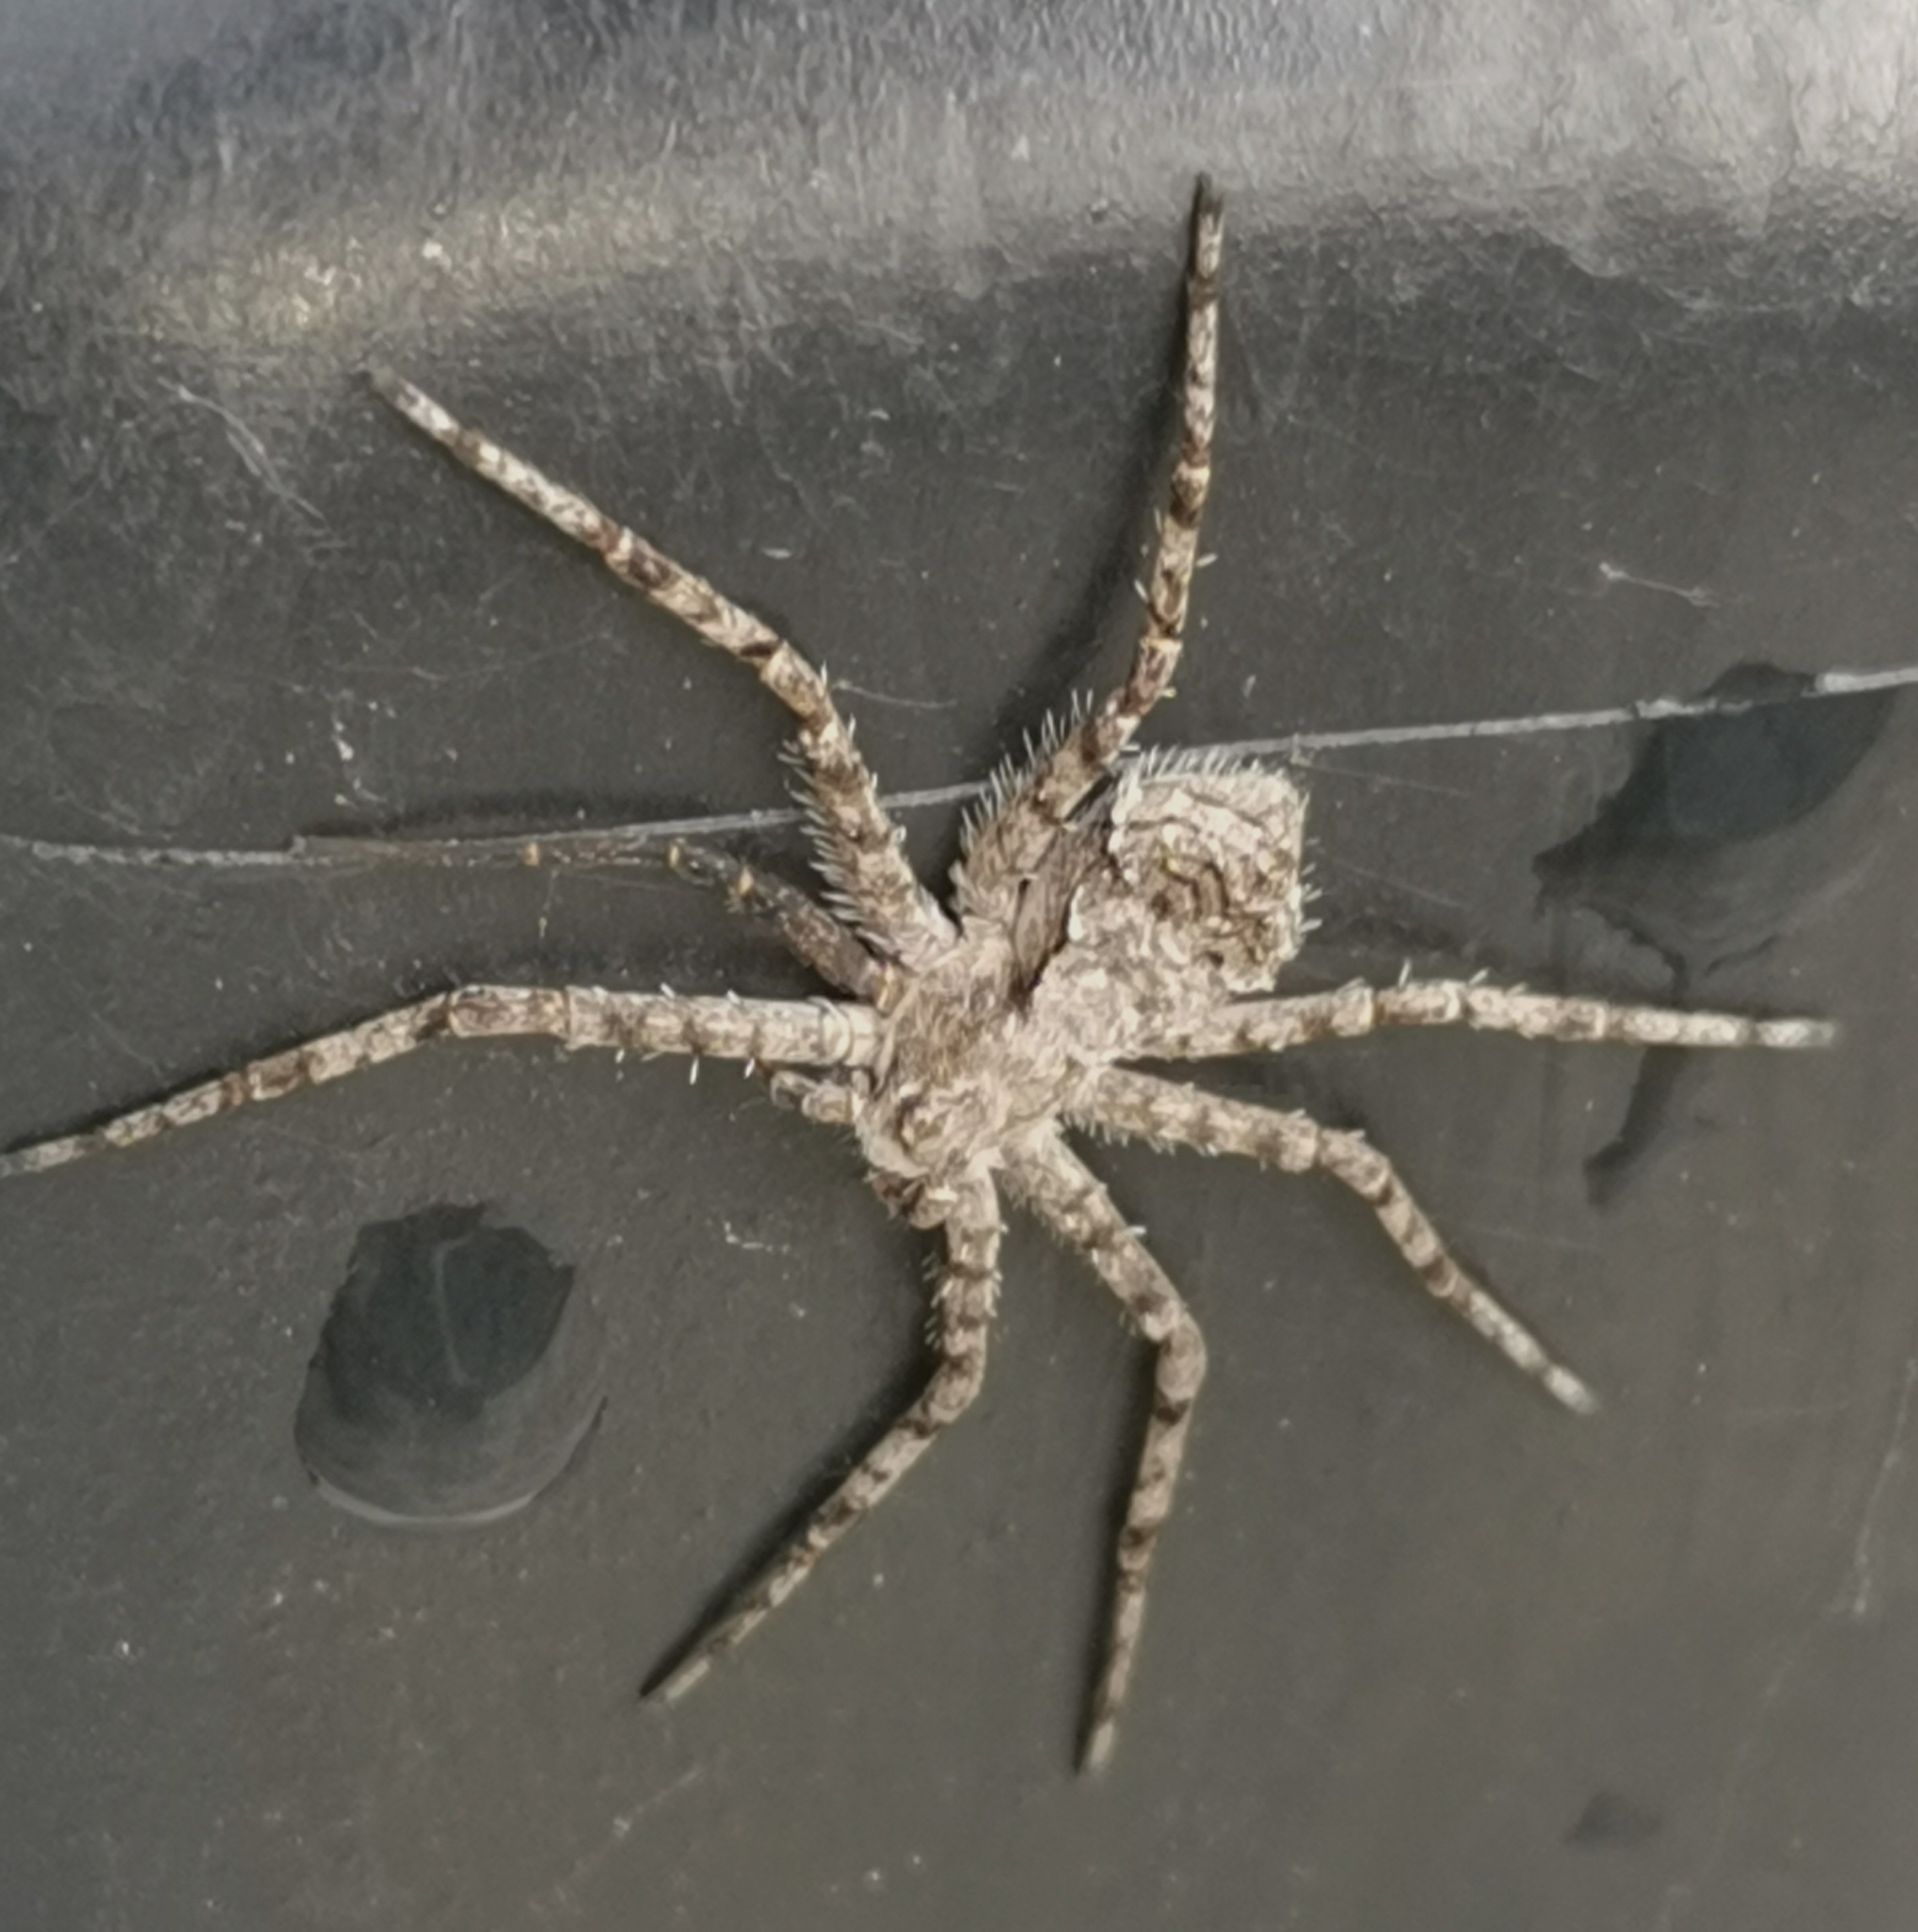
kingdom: Animalia
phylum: Arthropoda
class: Arachnida
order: Araneae
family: Philodromidae
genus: Philodromus
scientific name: Philodromus margaritatus
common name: Lichen running-spider
